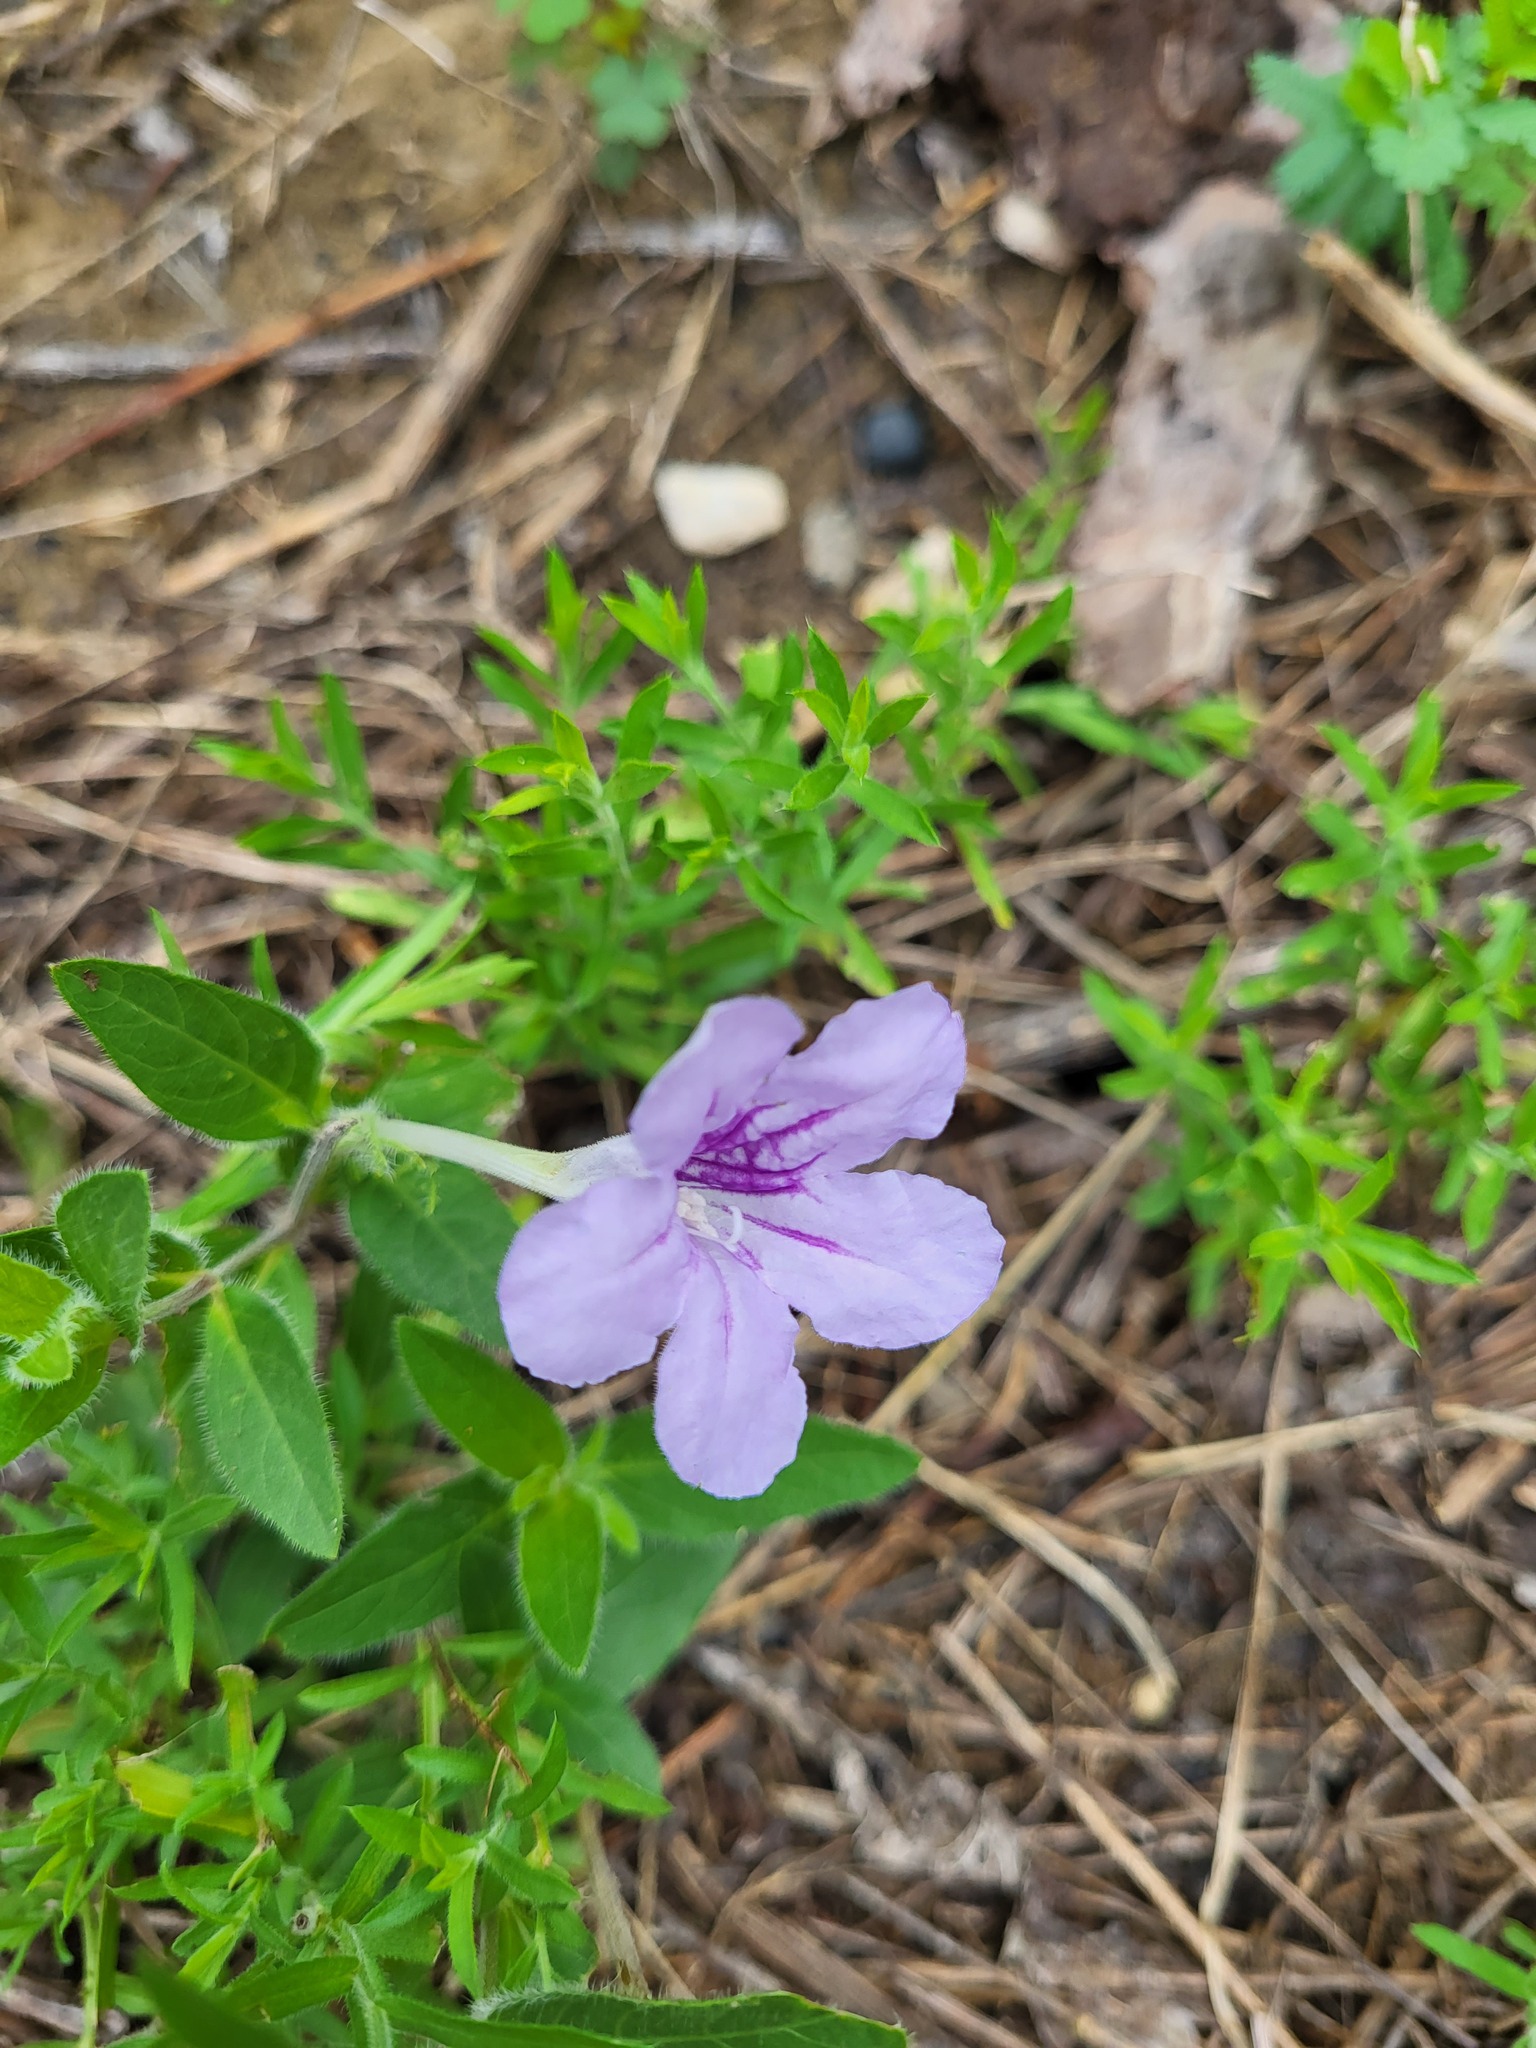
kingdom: Plantae
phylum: Tracheophyta
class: Magnoliopsida
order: Lamiales
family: Acanthaceae
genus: Ruellia
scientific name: Ruellia humilis
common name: Fringe-leaf ruellia
